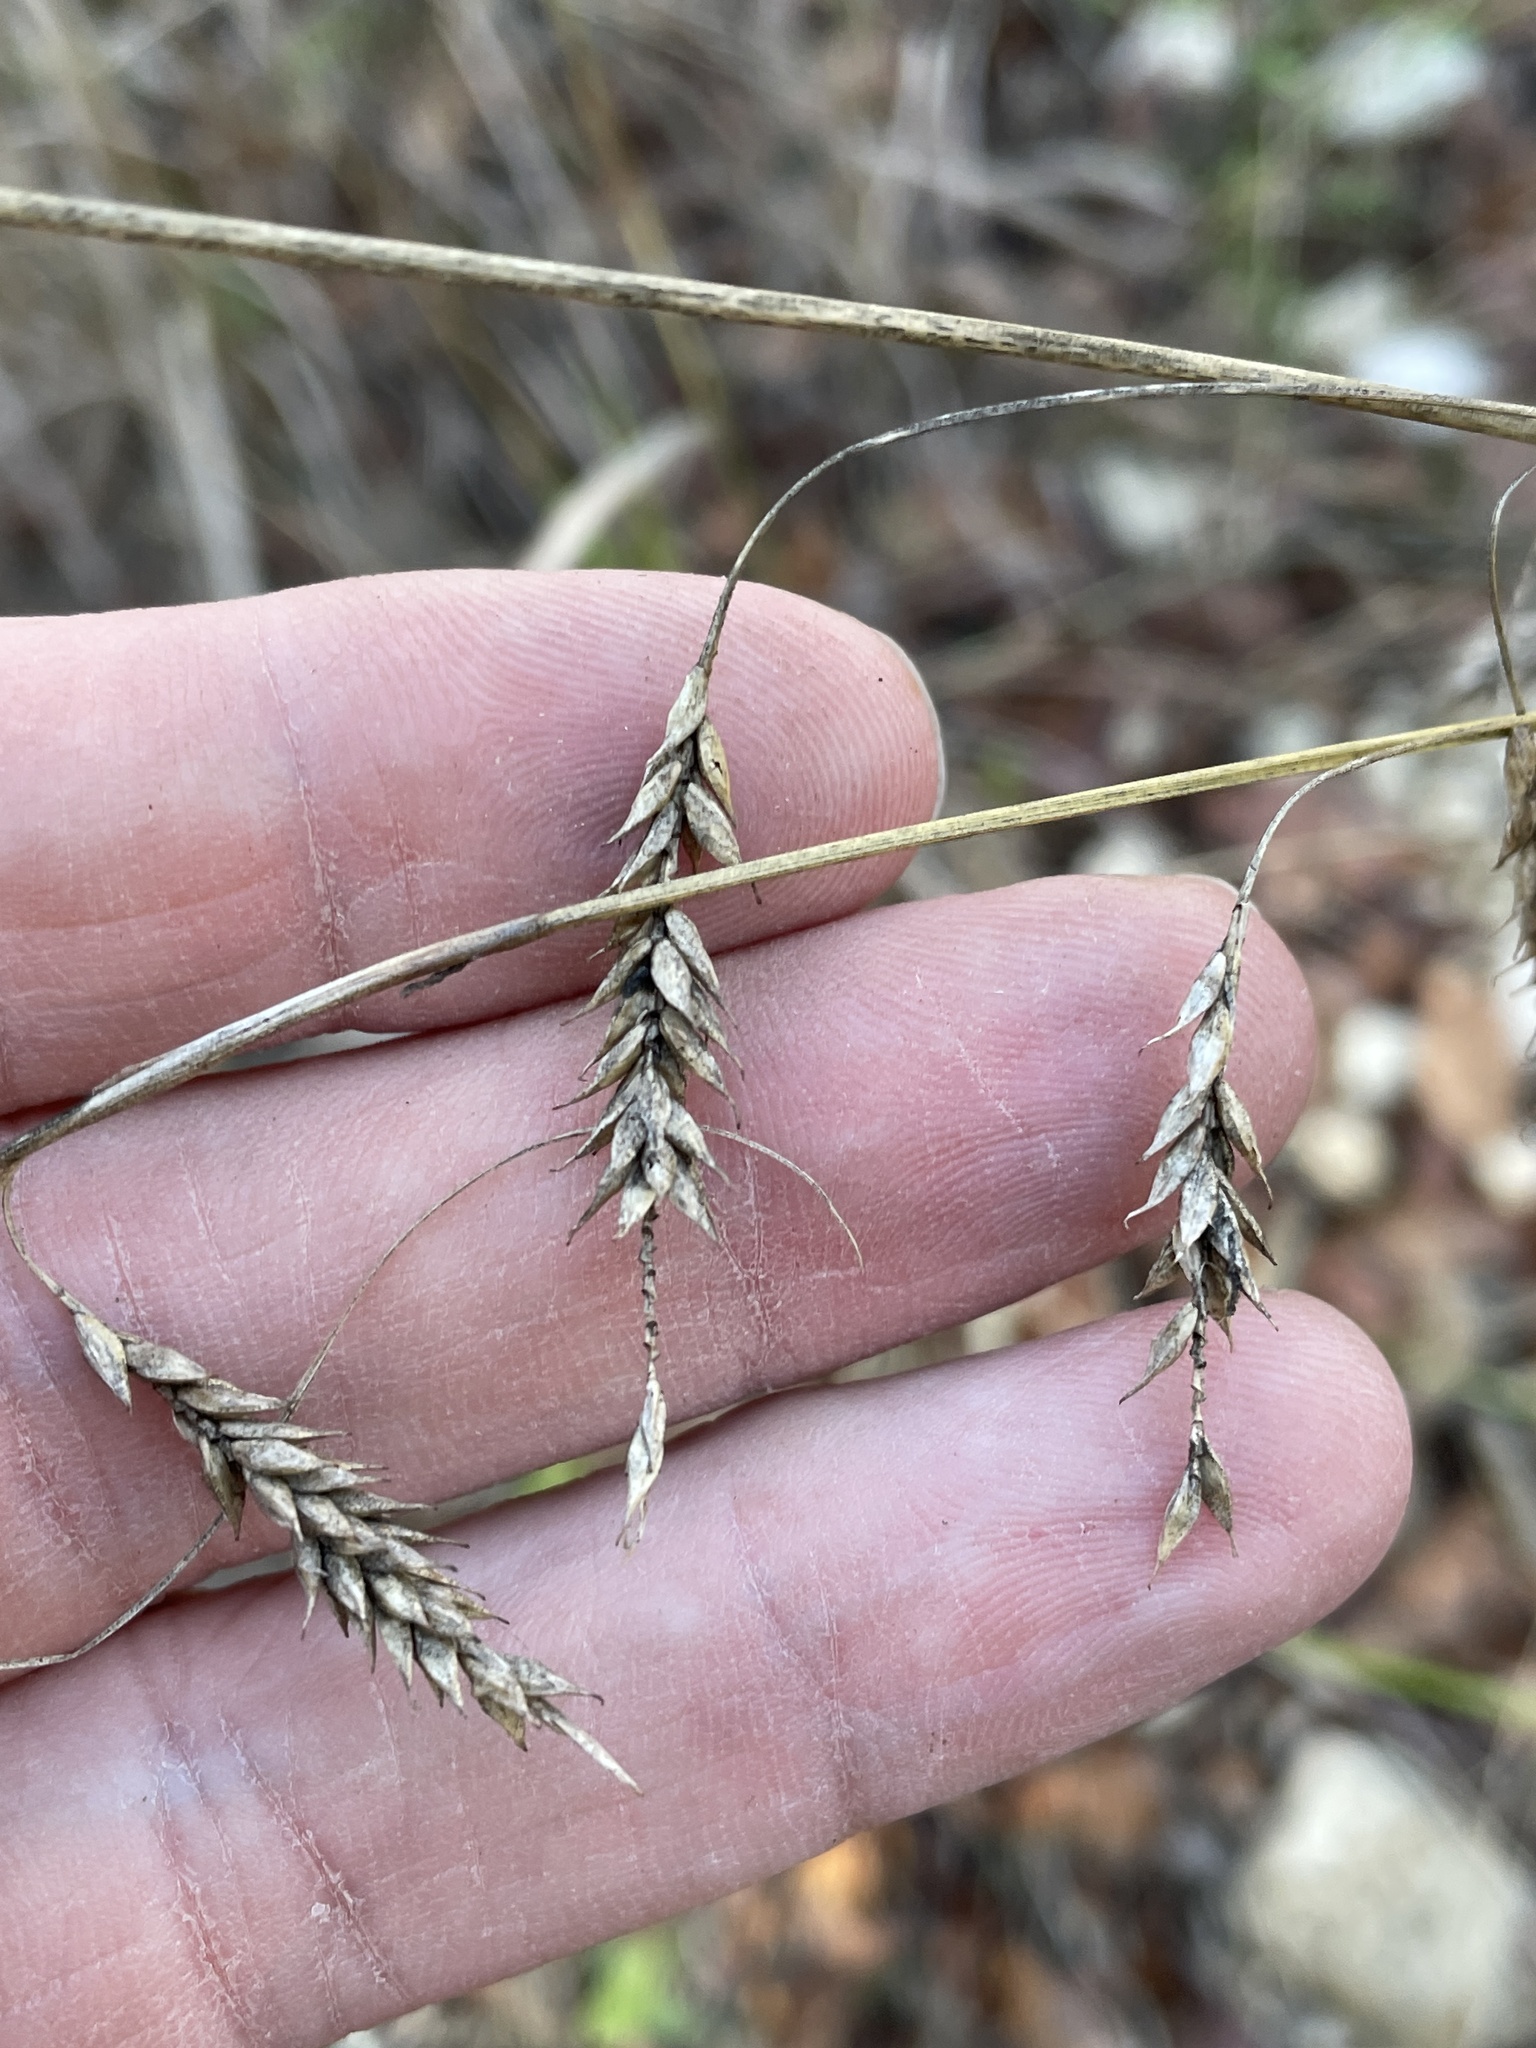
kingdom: Plantae
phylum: Tracheophyta
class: Liliopsida
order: Poales
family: Cyperaceae
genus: Carex
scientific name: Carex cherokeensis
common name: Cherokee sedge
